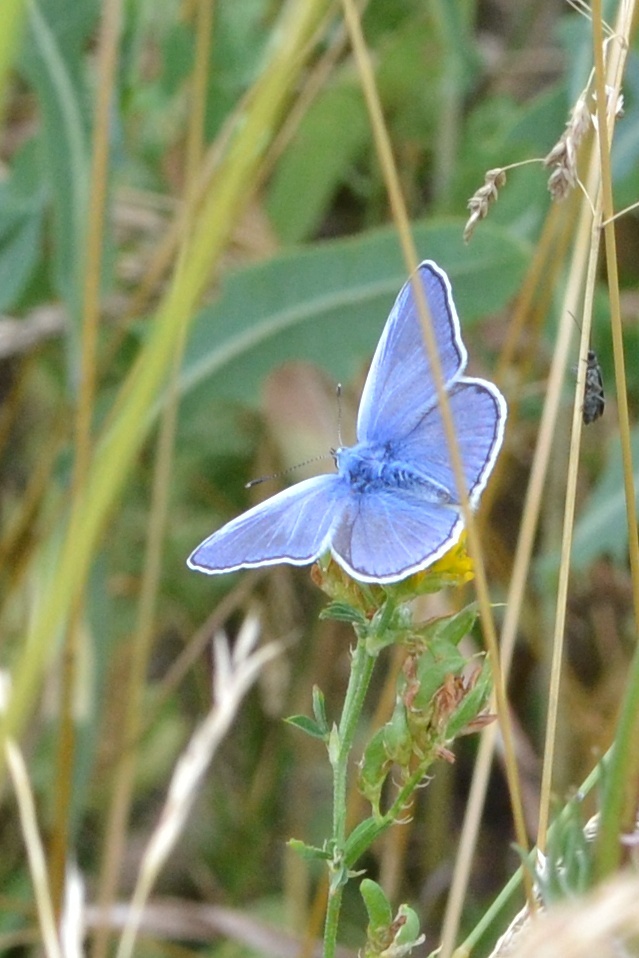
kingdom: Animalia
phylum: Arthropoda
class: Insecta
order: Lepidoptera
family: Lycaenidae
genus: Polyommatus
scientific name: Polyommatus icarus
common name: Common blue
